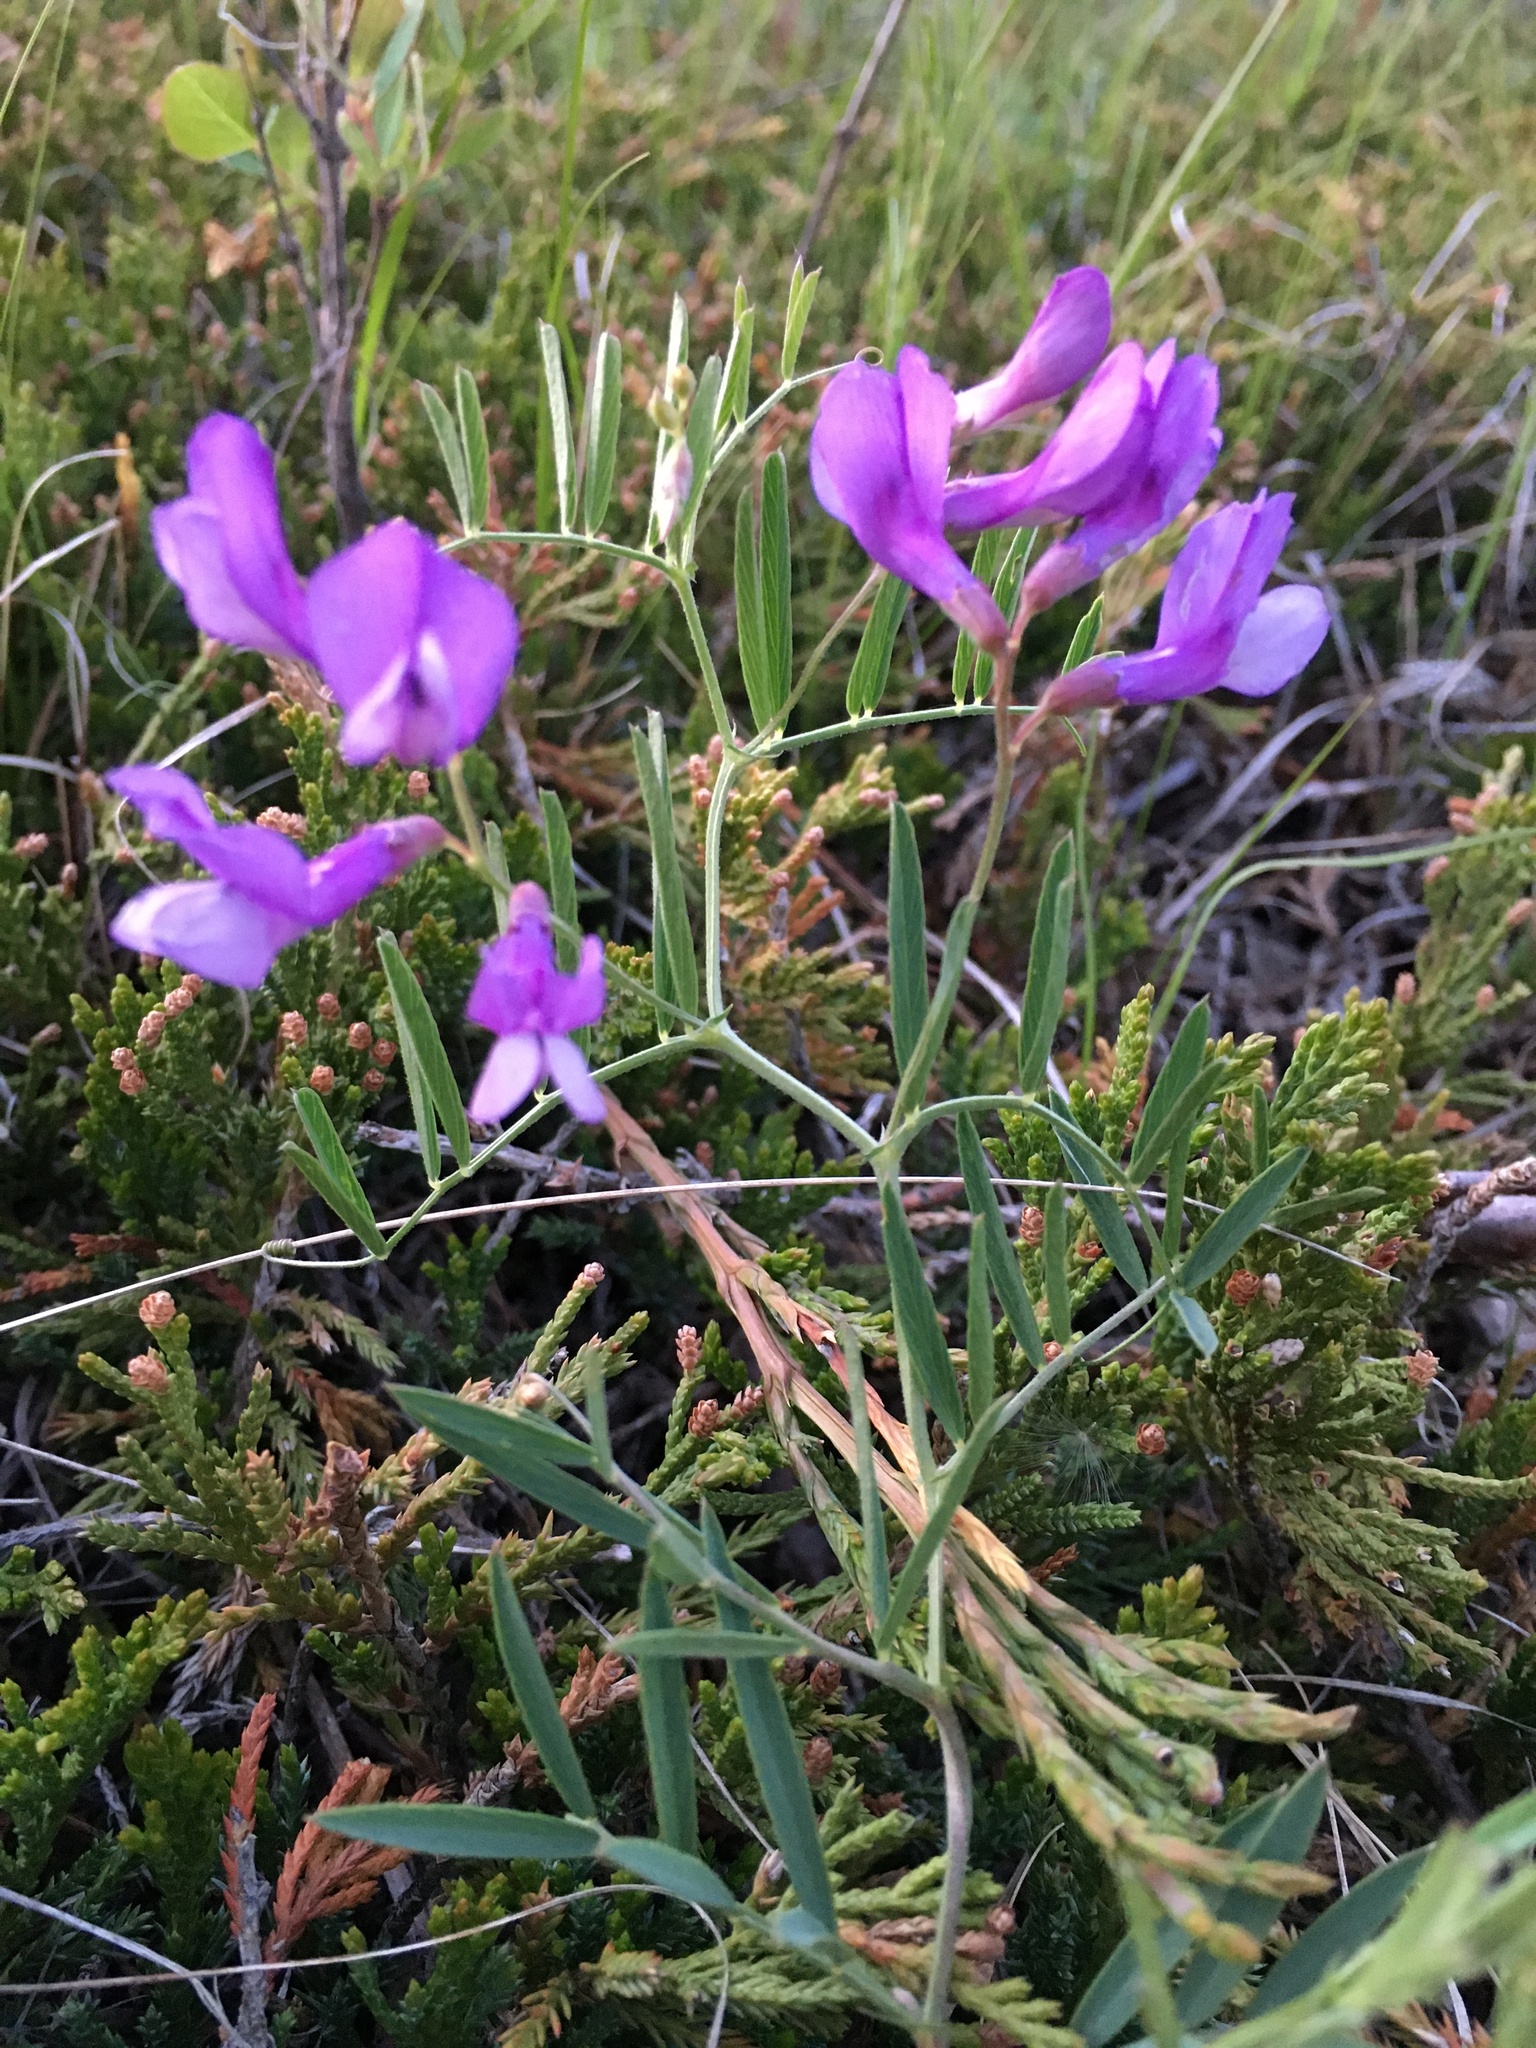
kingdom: Plantae
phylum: Tracheophyta
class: Magnoliopsida
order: Fabales
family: Fabaceae
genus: Vicia
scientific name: Vicia americana
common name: American vetch
